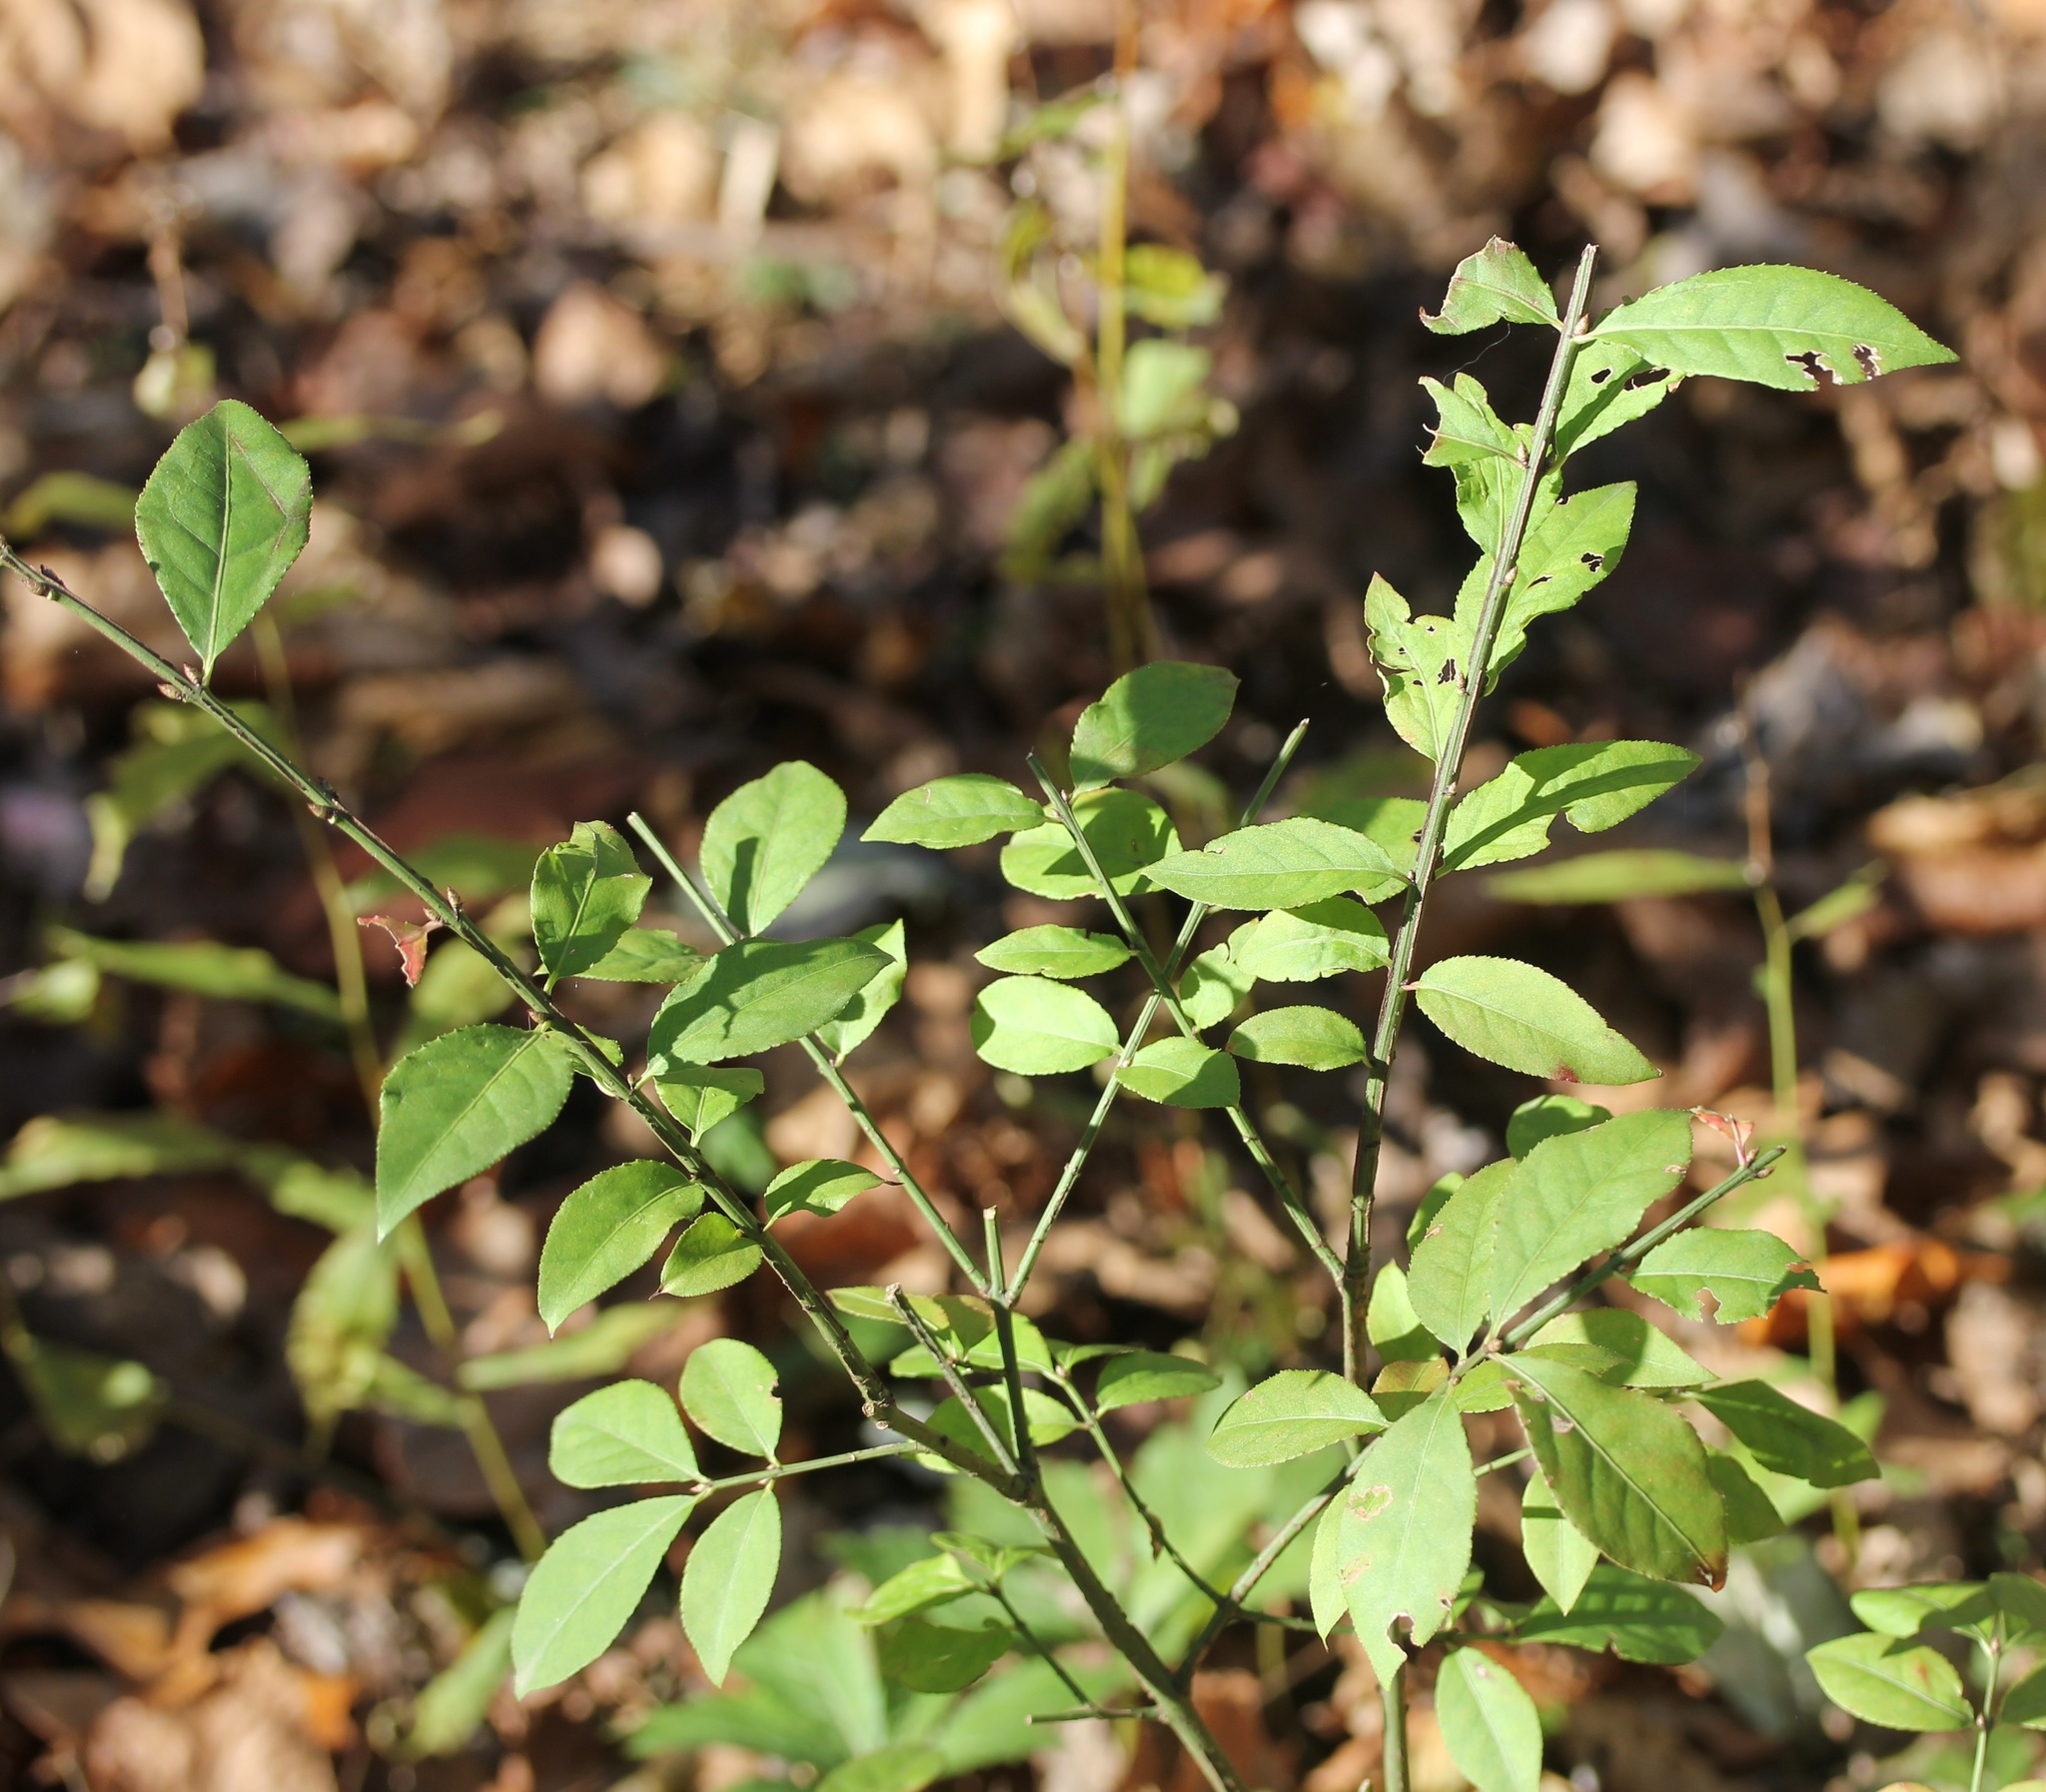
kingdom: Plantae
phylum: Tracheophyta
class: Magnoliopsida
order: Celastrales
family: Celastraceae
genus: Euonymus
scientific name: Euonymus alatus
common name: Winged euonymus
